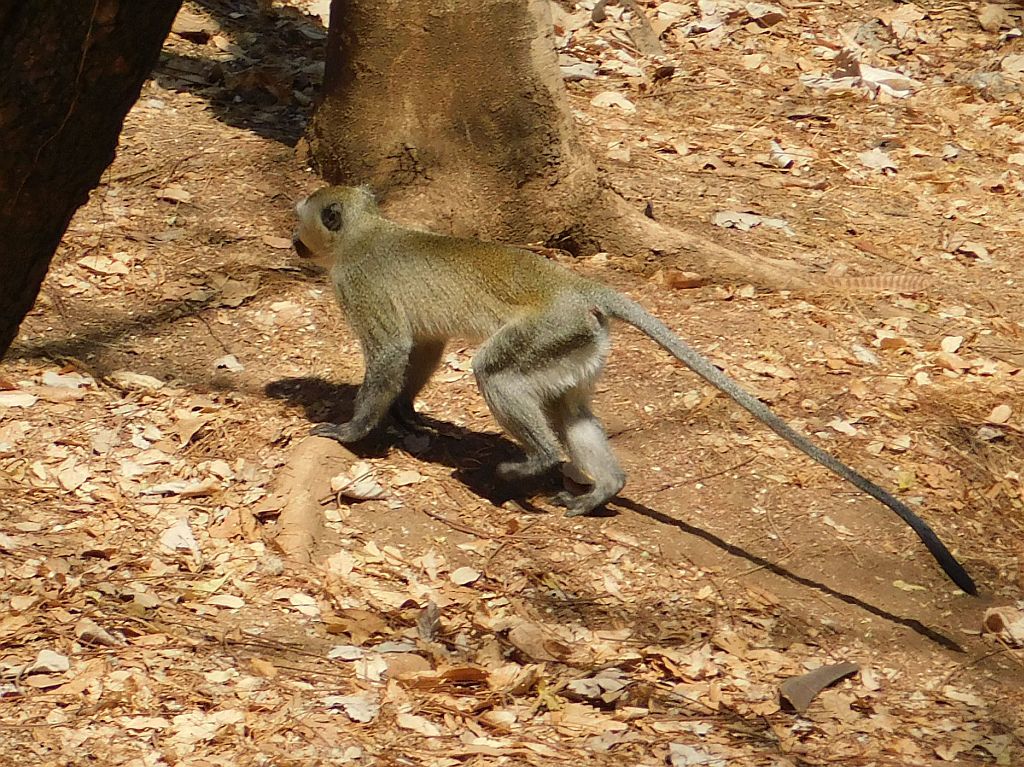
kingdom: Animalia
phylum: Chordata
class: Mammalia
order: Primates
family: Cercopithecidae
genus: Chlorocebus
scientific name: Chlorocebus pygerythrus
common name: Vervet monkey
